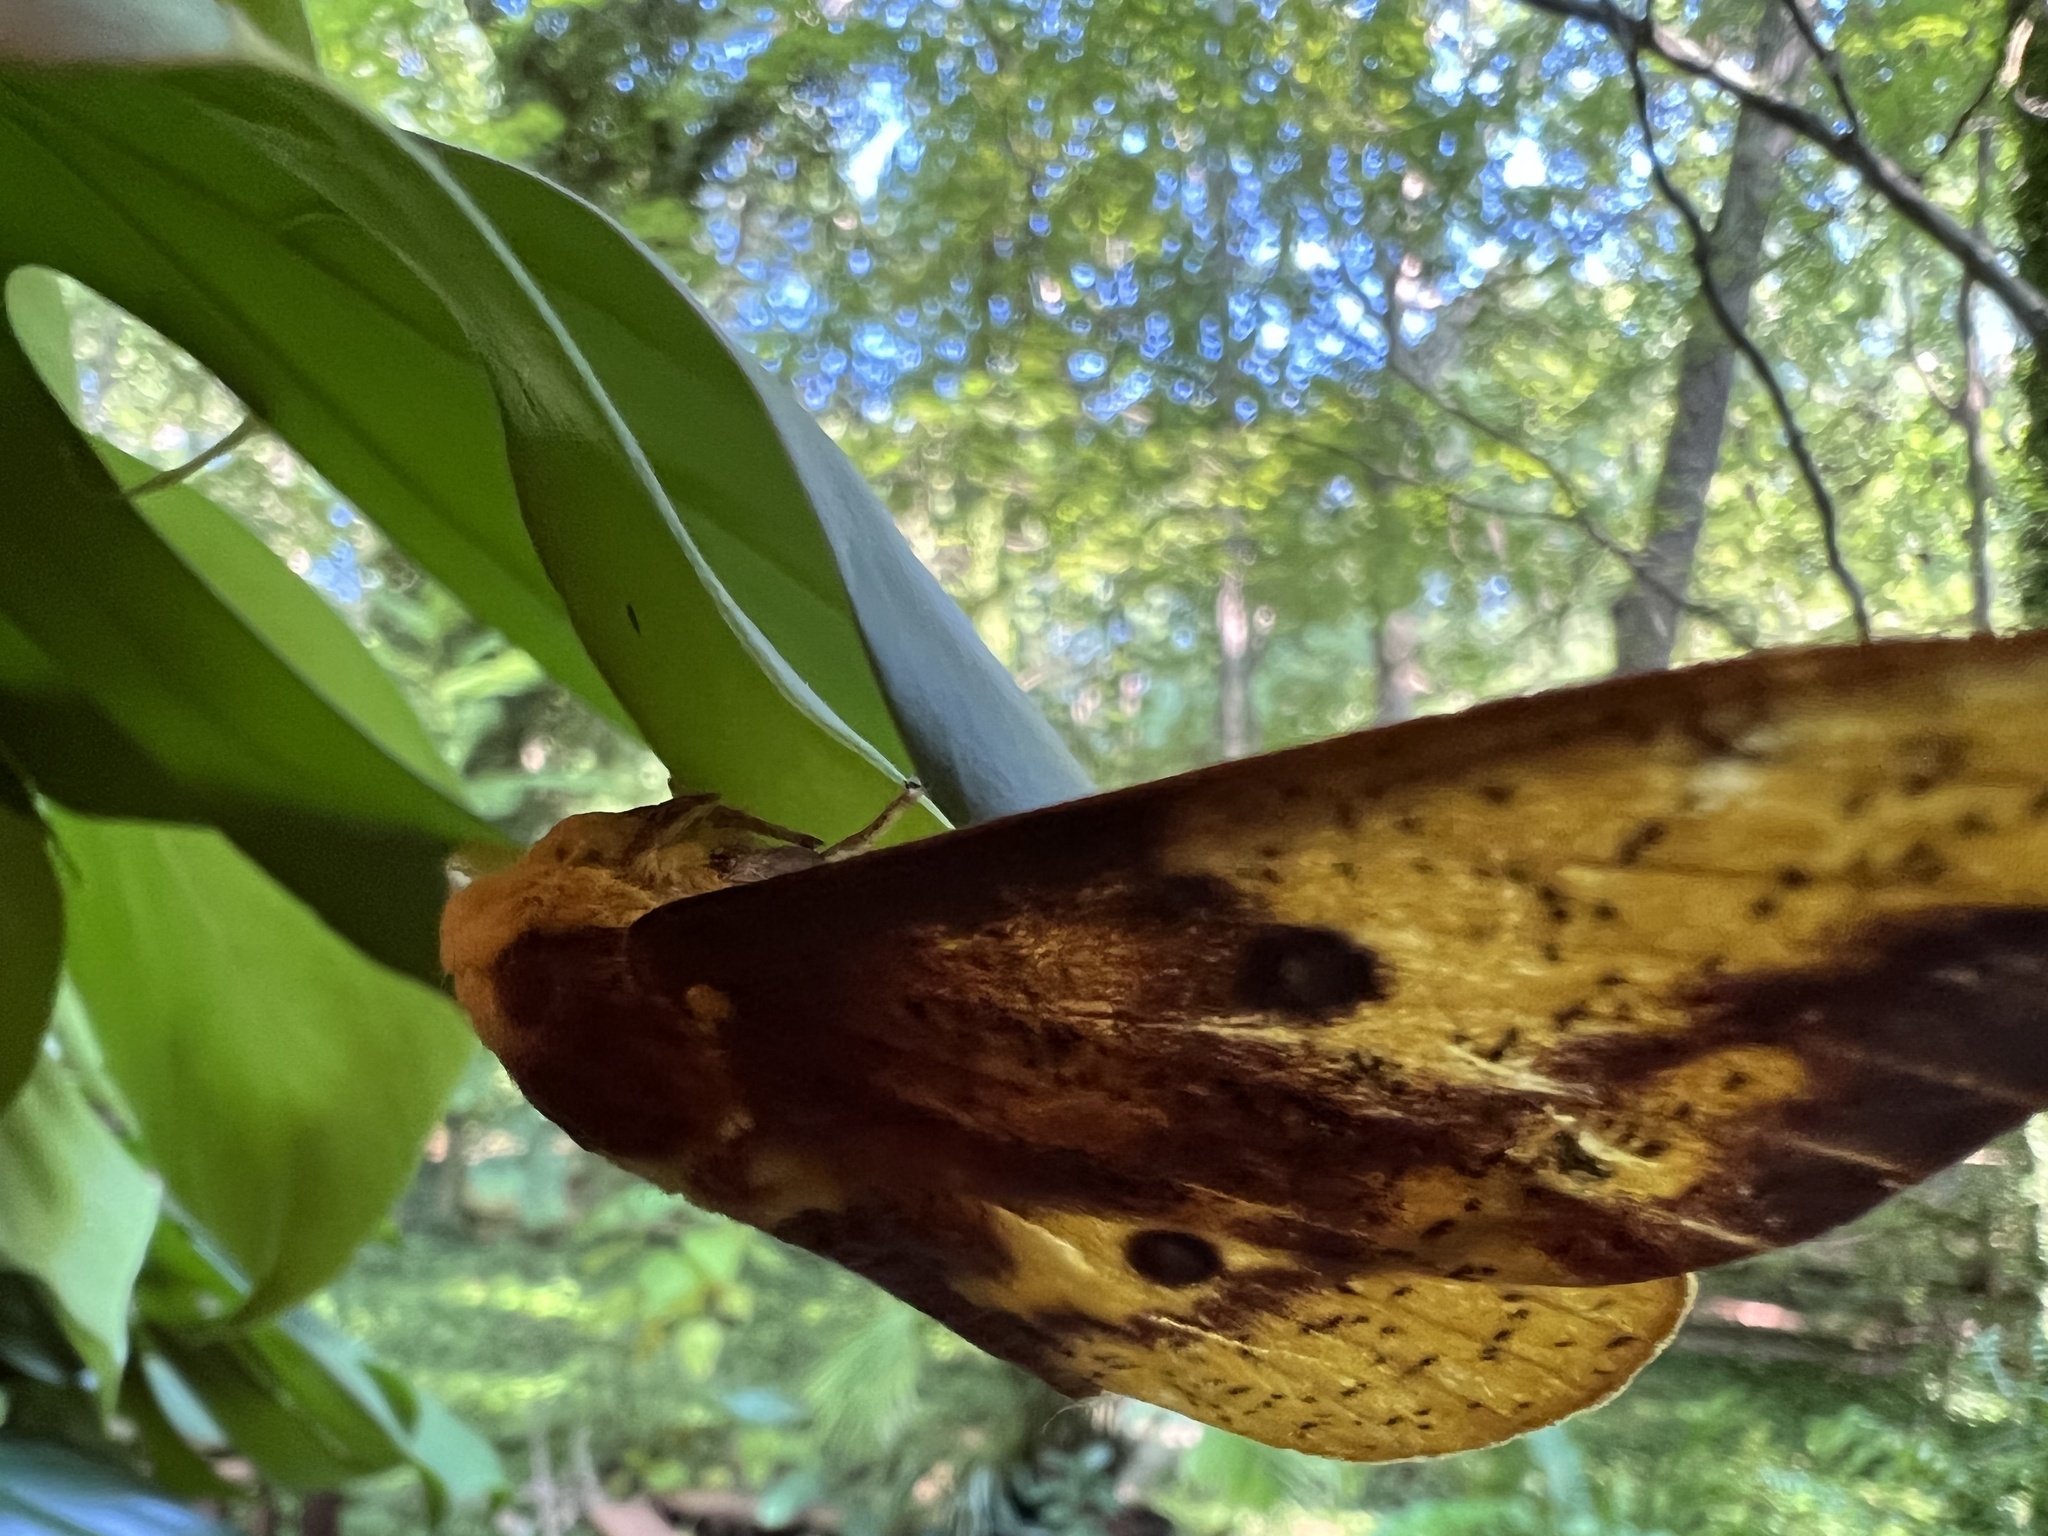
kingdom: Animalia
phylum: Arthropoda
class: Insecta
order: Lepidoptera
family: Saturniidae
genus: Eacles
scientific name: Eacles imperialis
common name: Imperial moth
